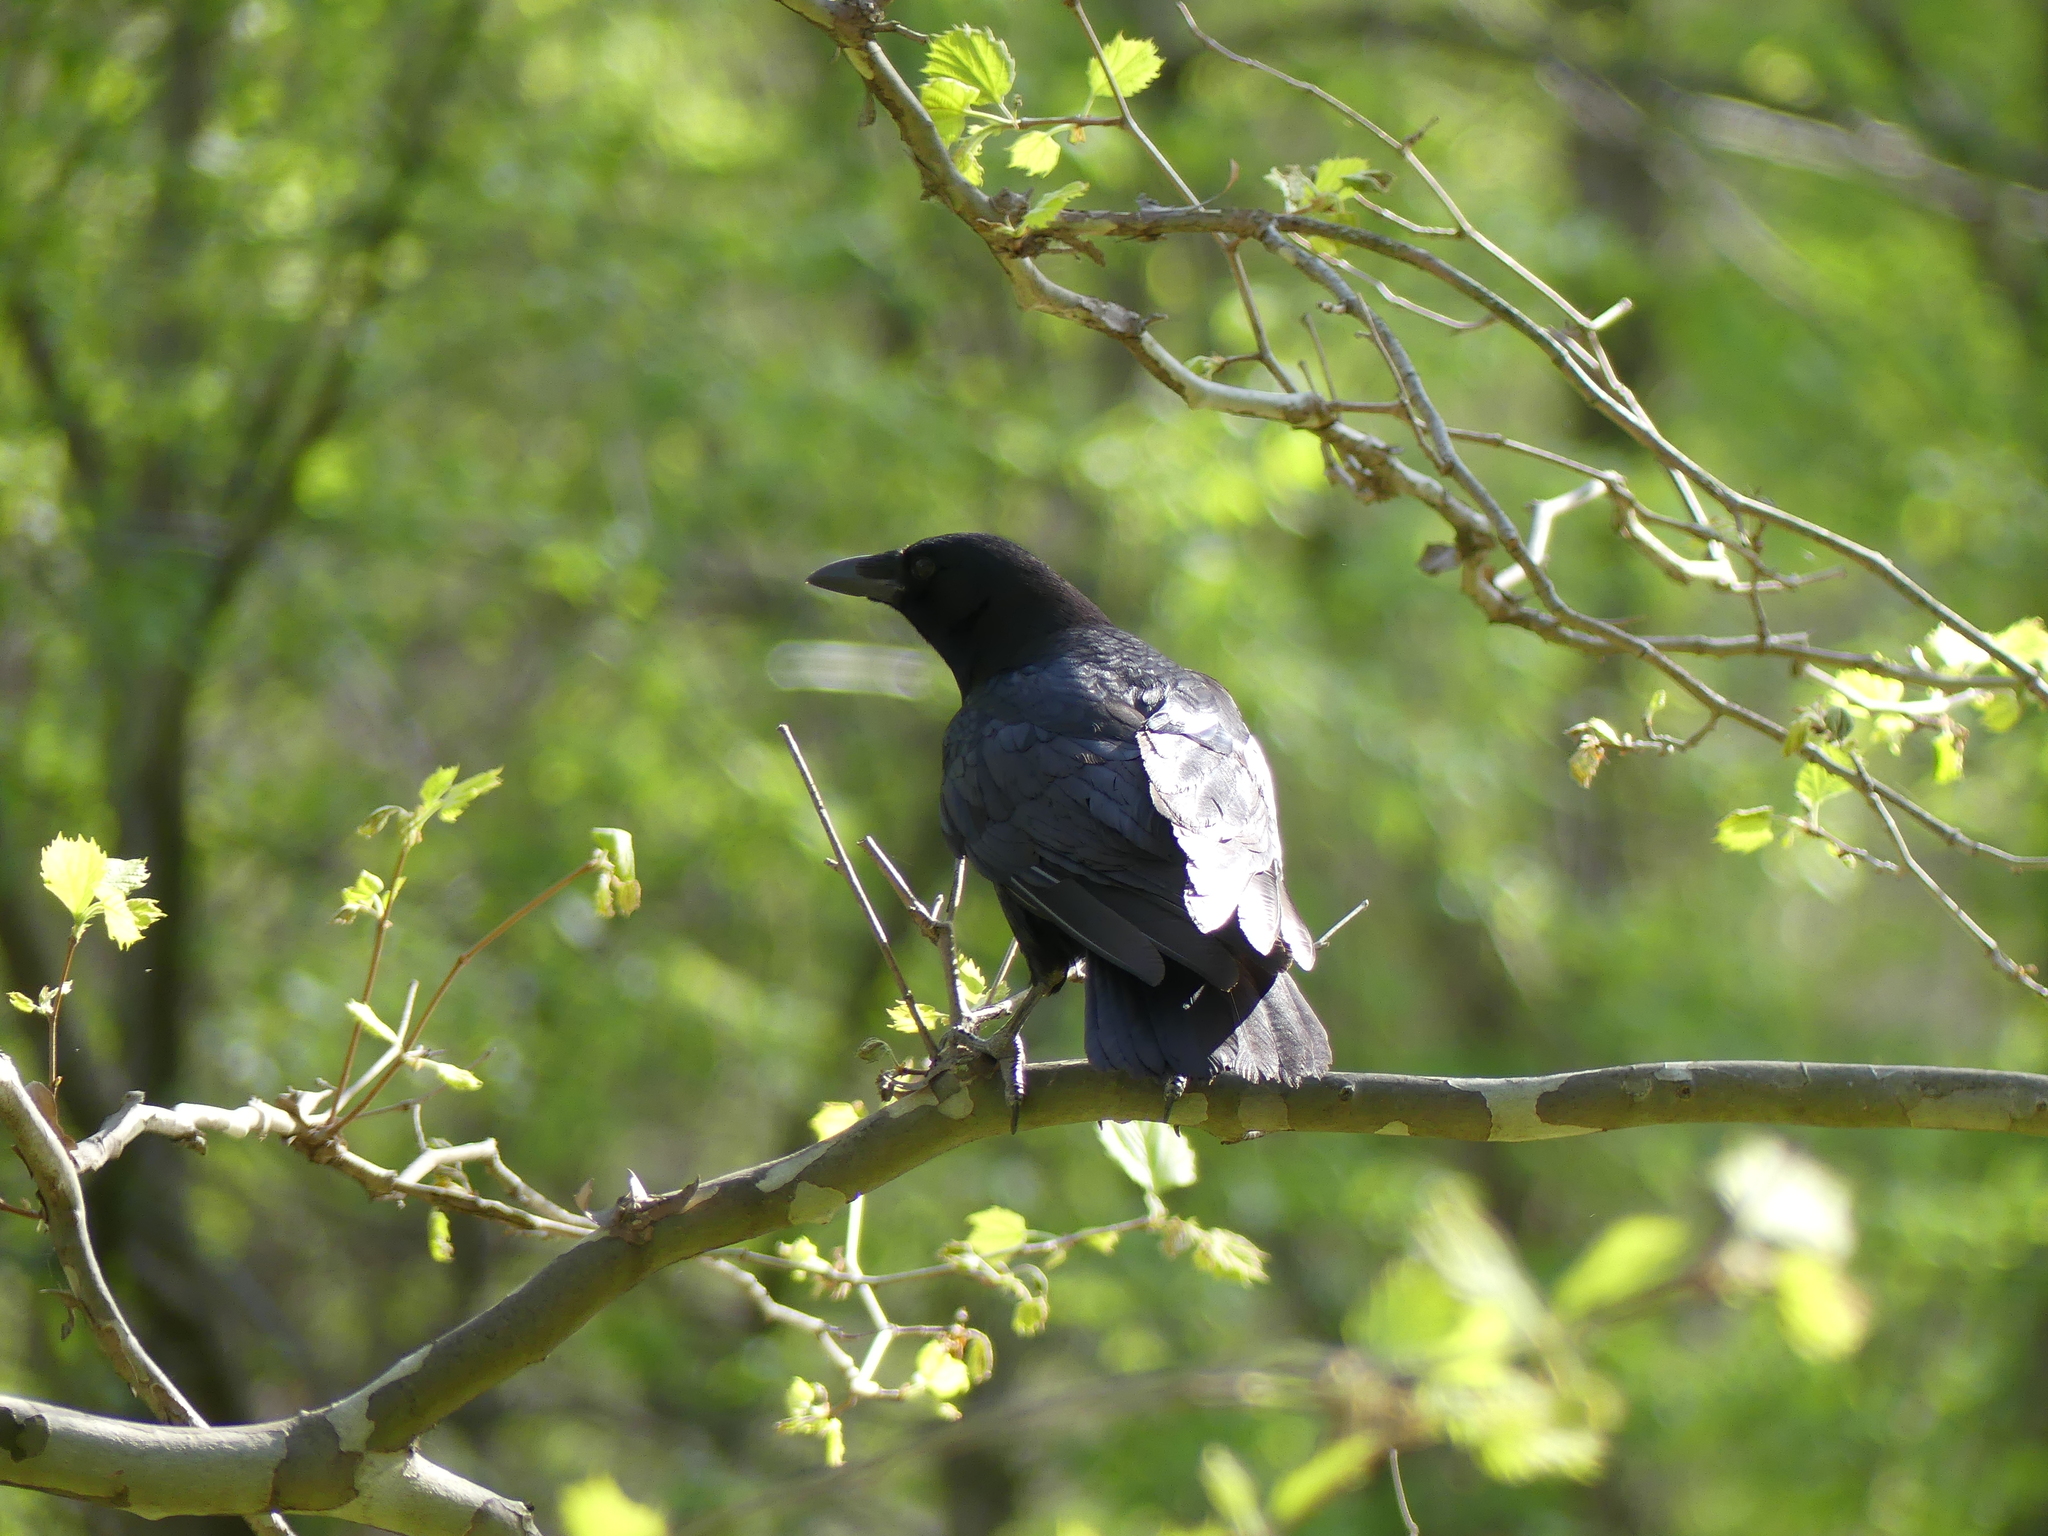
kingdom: Animalia
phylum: Chordata
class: Aves
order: Passeriformes
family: Corvidae
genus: Corvus
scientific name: Corvus
